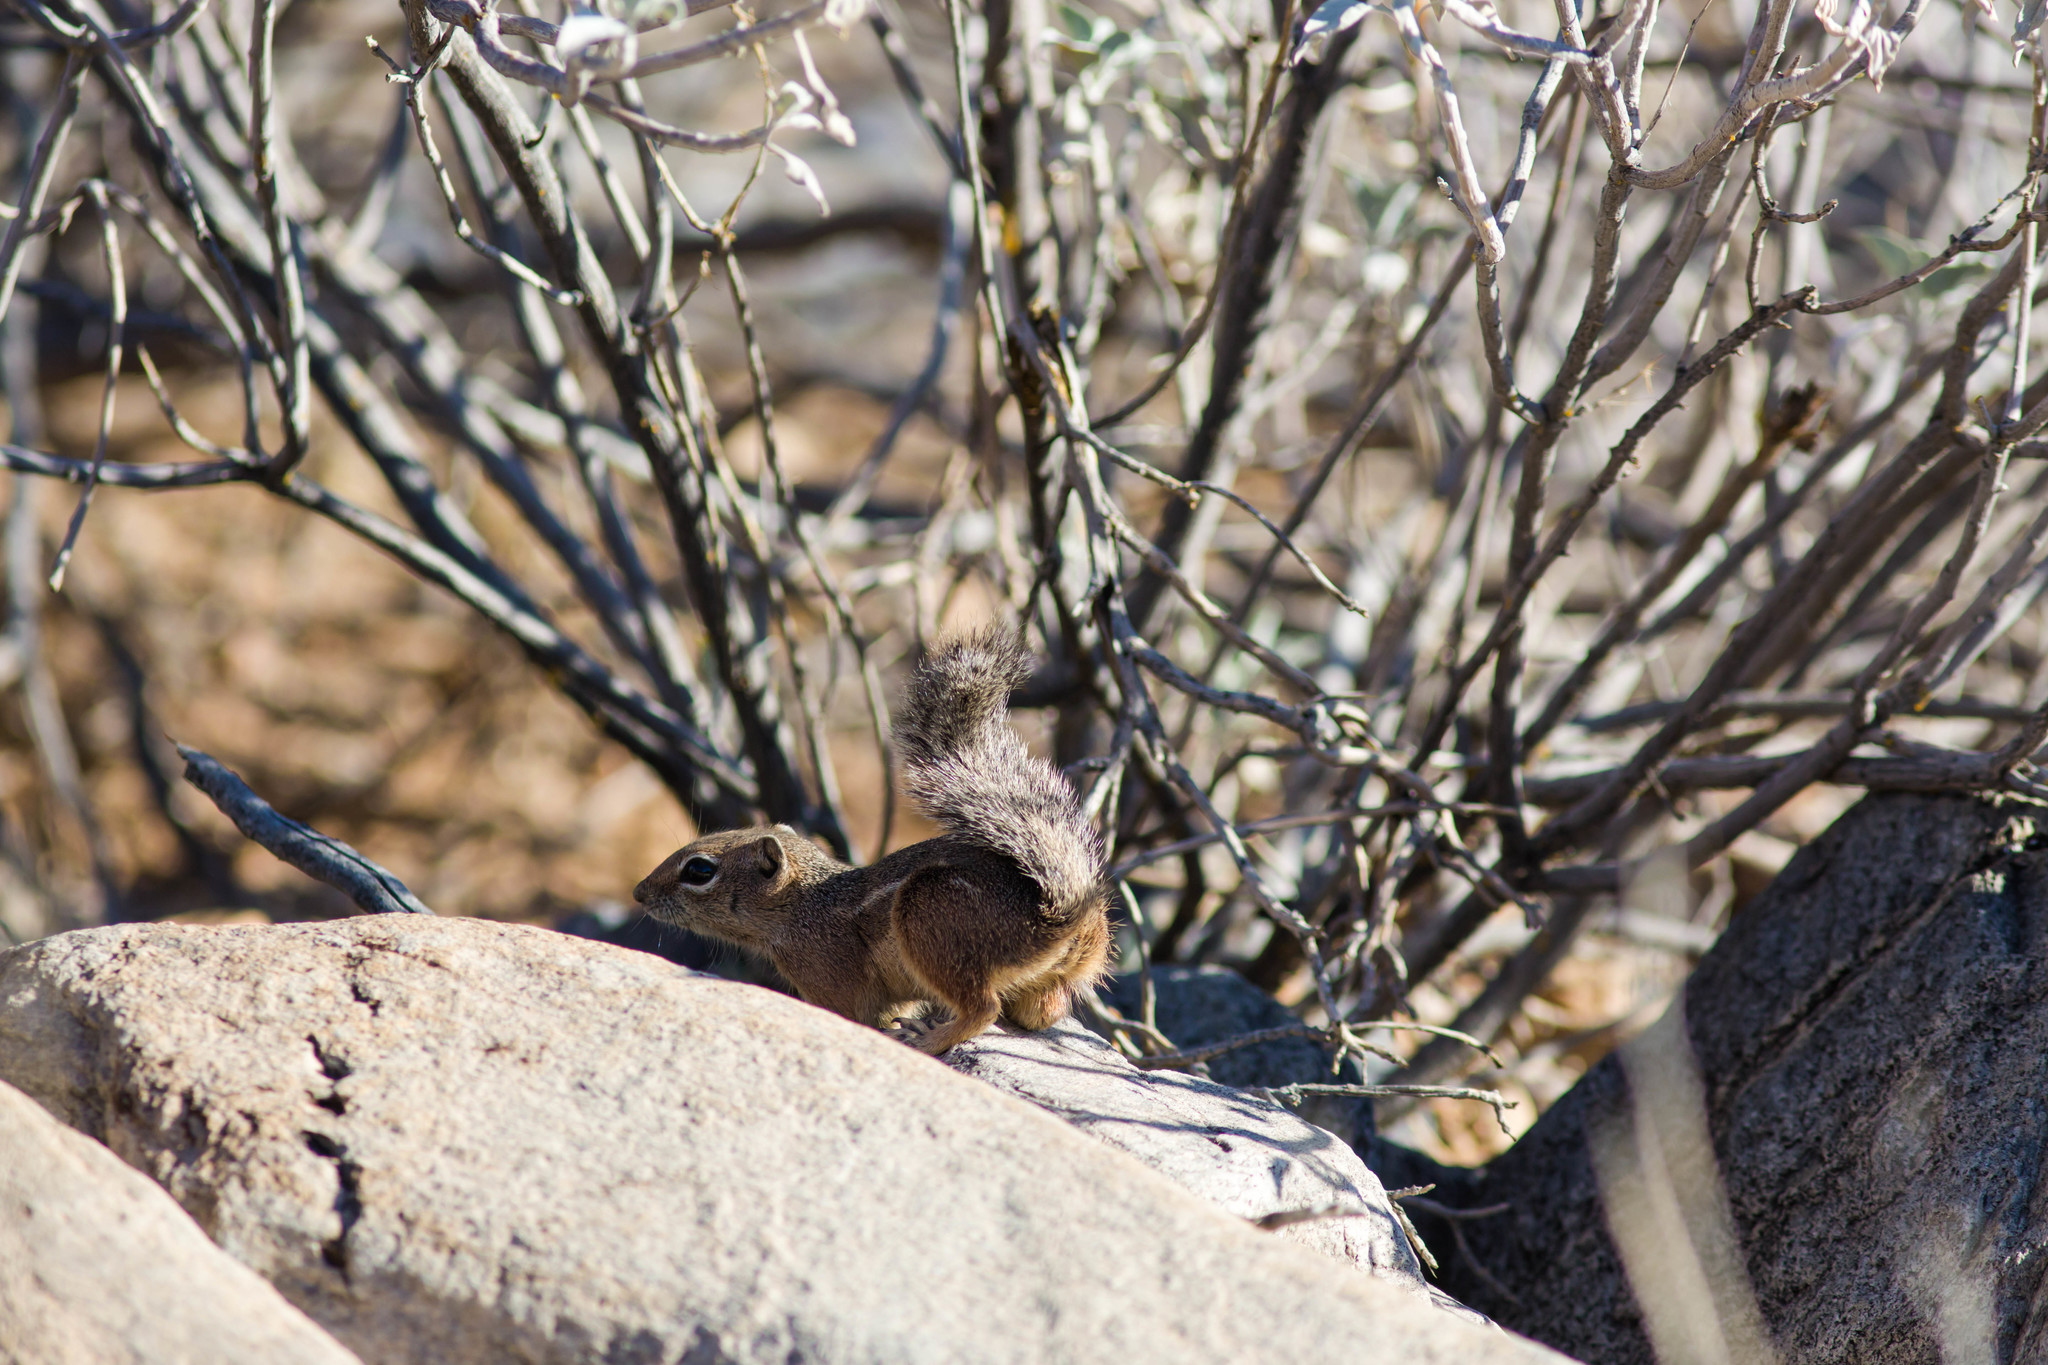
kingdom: Animalia
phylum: Chordata
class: Mammalia
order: Rodentia
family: Sciuridae
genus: Ammospermophilus
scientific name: Ammospermophilus harrisii
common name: Harris's antelope squirrel
